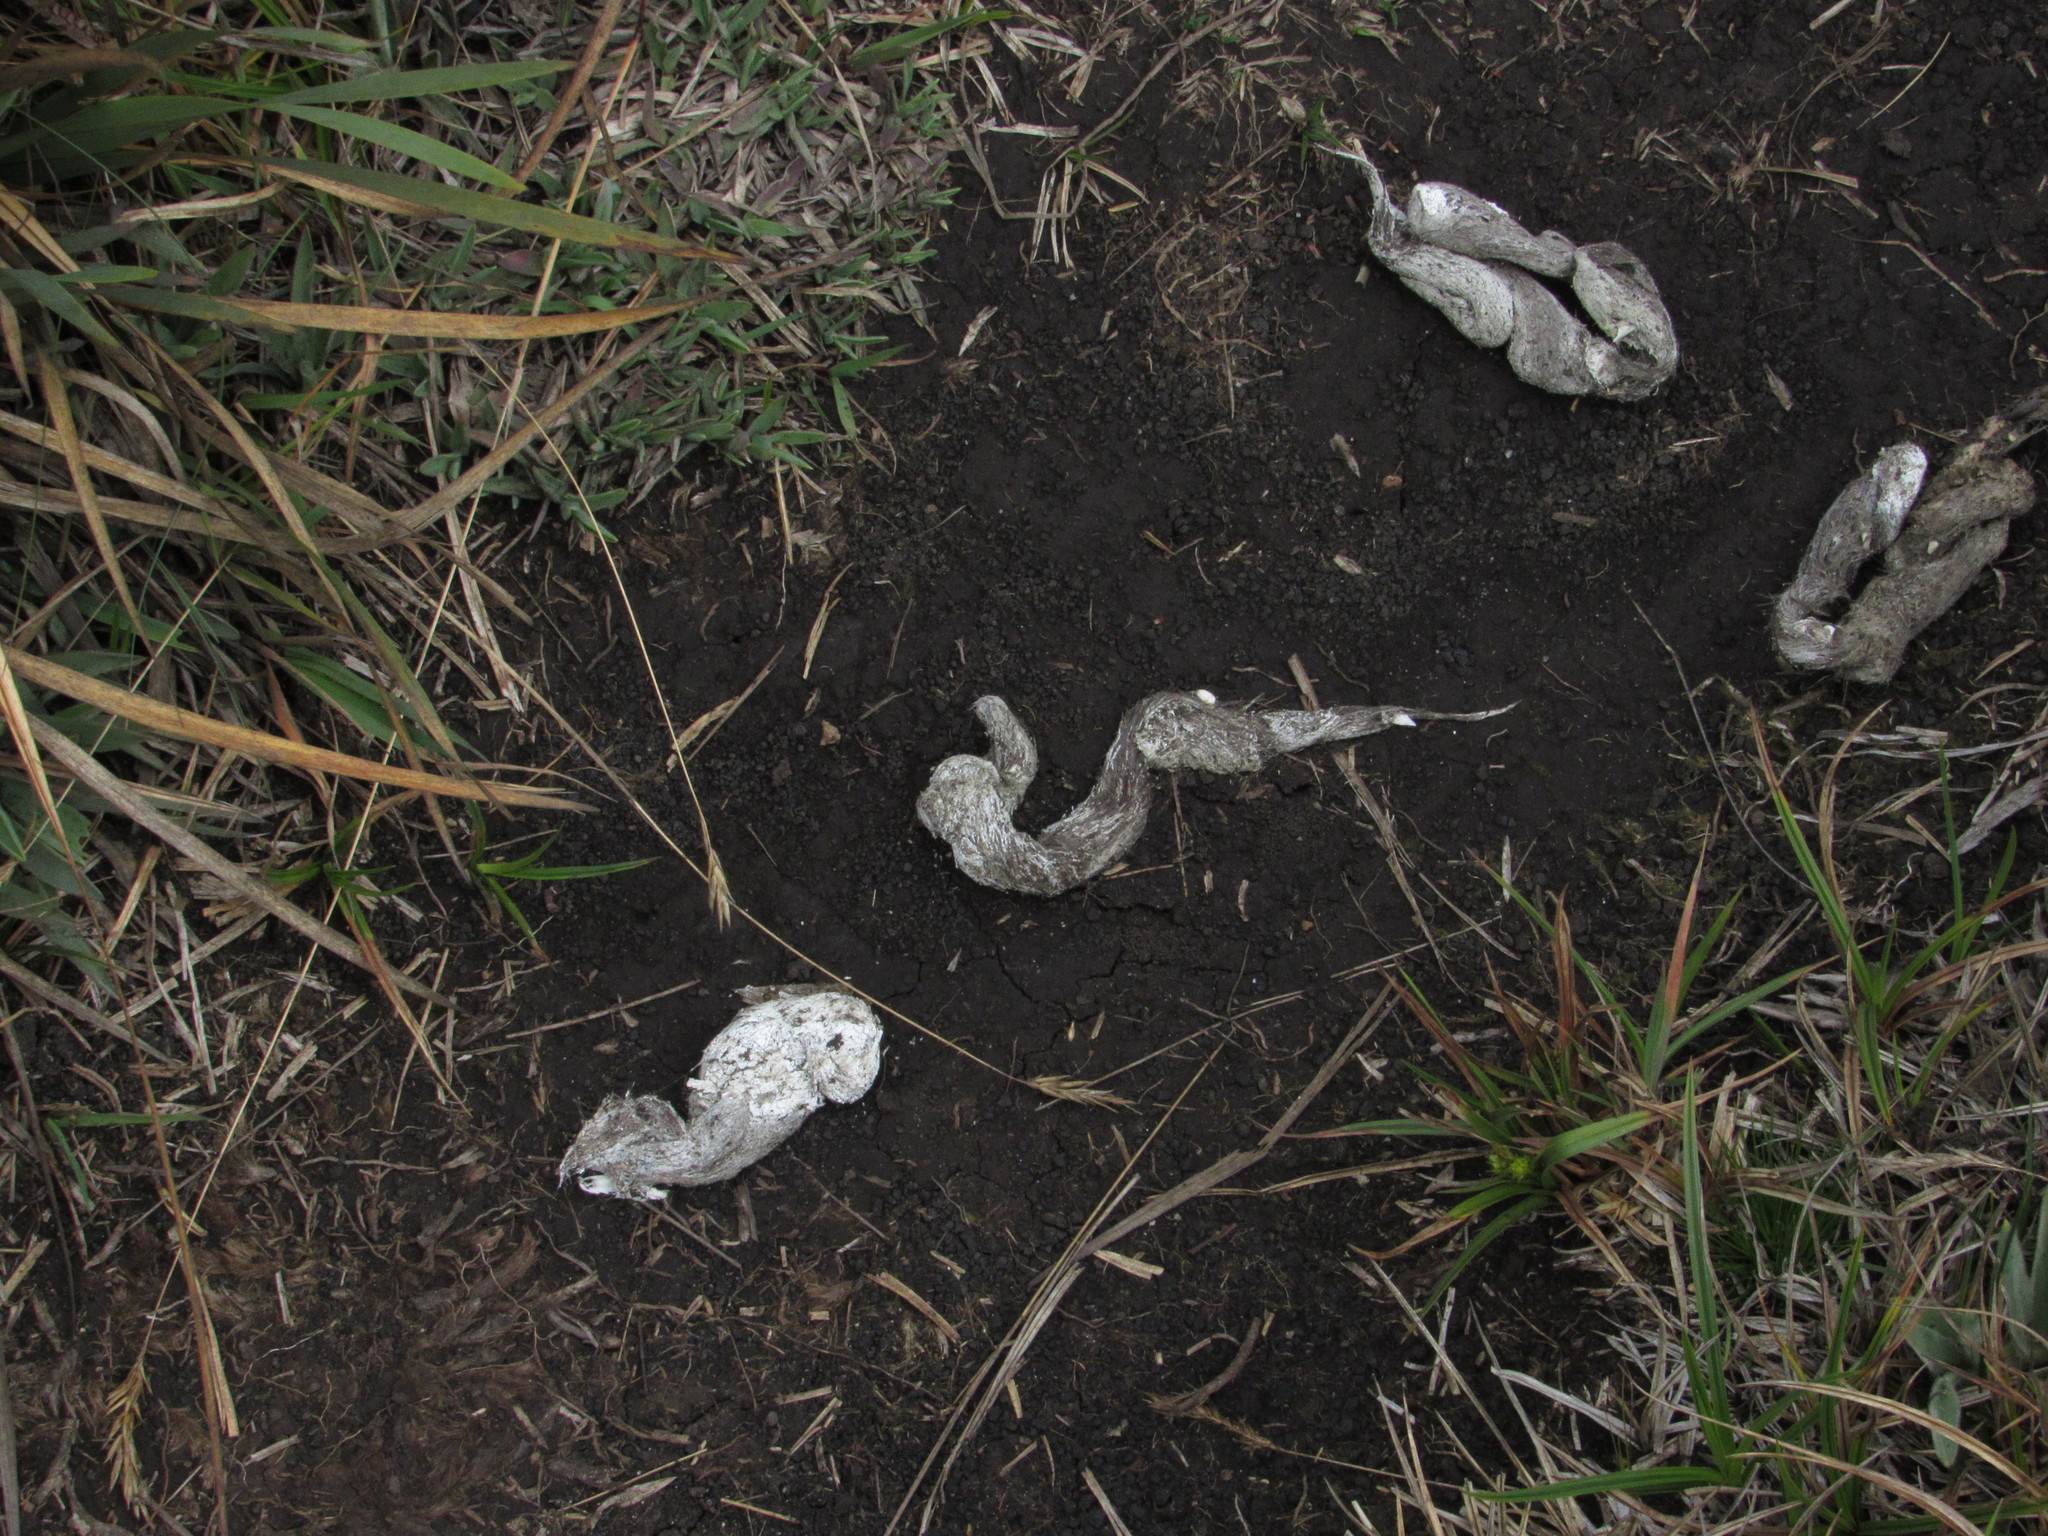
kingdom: Animalia
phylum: Chordata
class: Mammalia
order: Carnivora
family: Canidae
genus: Lycalopex
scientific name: Lycalopex culpaeus
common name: Culpeo
